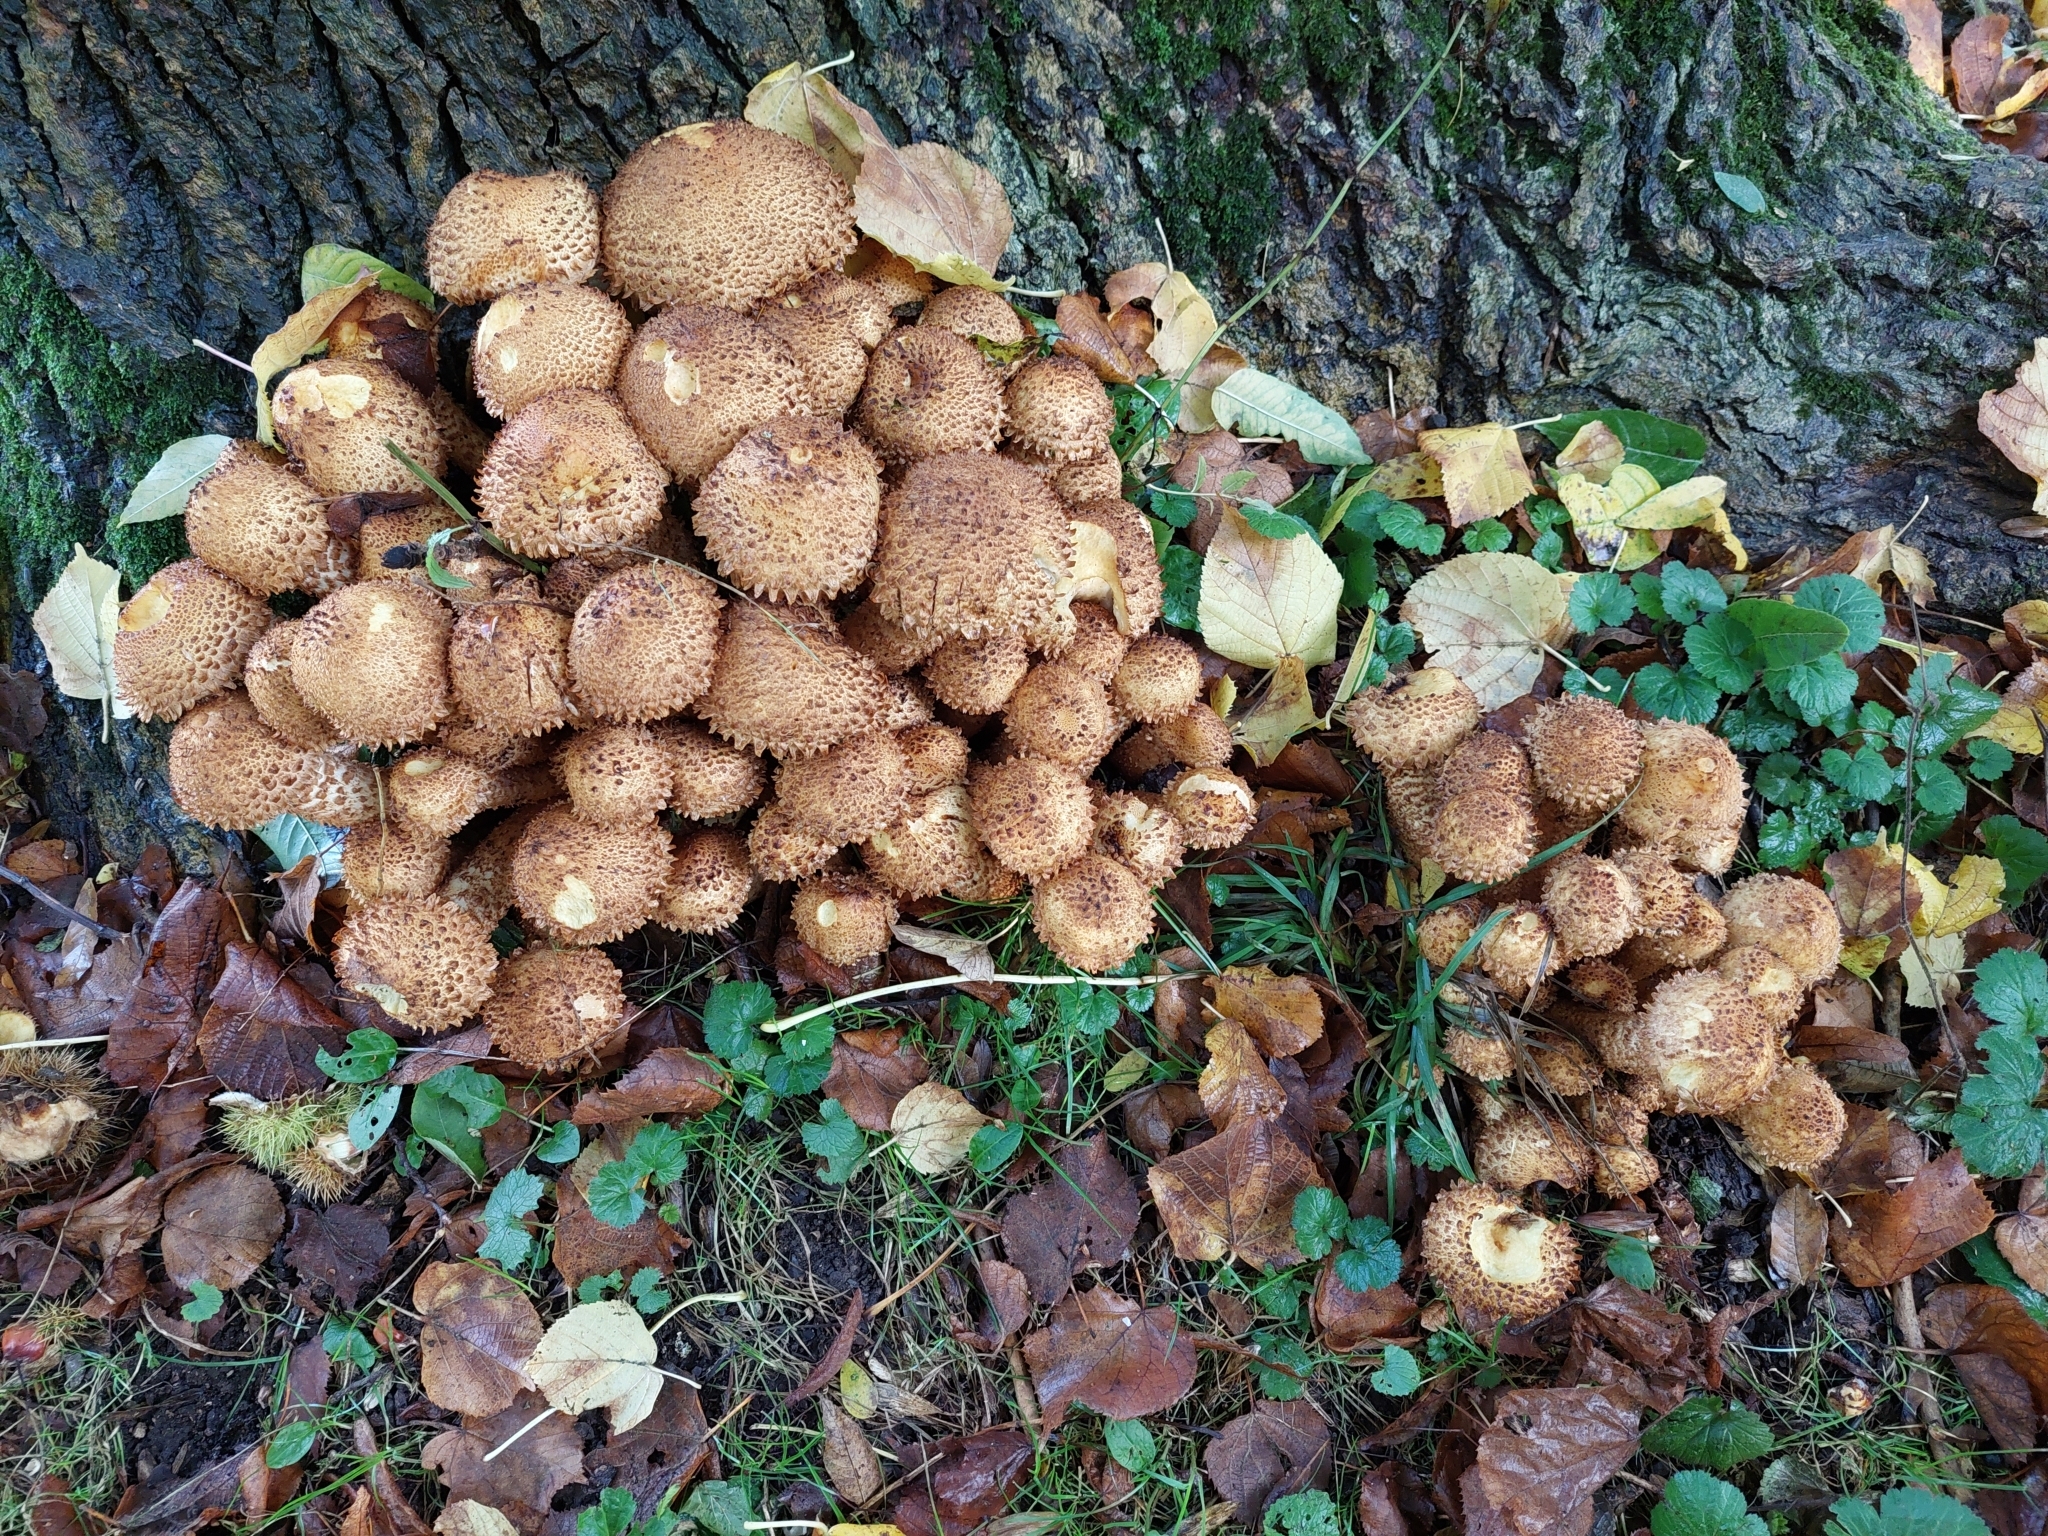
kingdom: Fungi
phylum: Basidiomycota
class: Agaricomycetes
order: Agaricales
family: Strophariaceae
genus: Pholiota
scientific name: Pholiota squarrosa
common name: Shaggy pholiota
